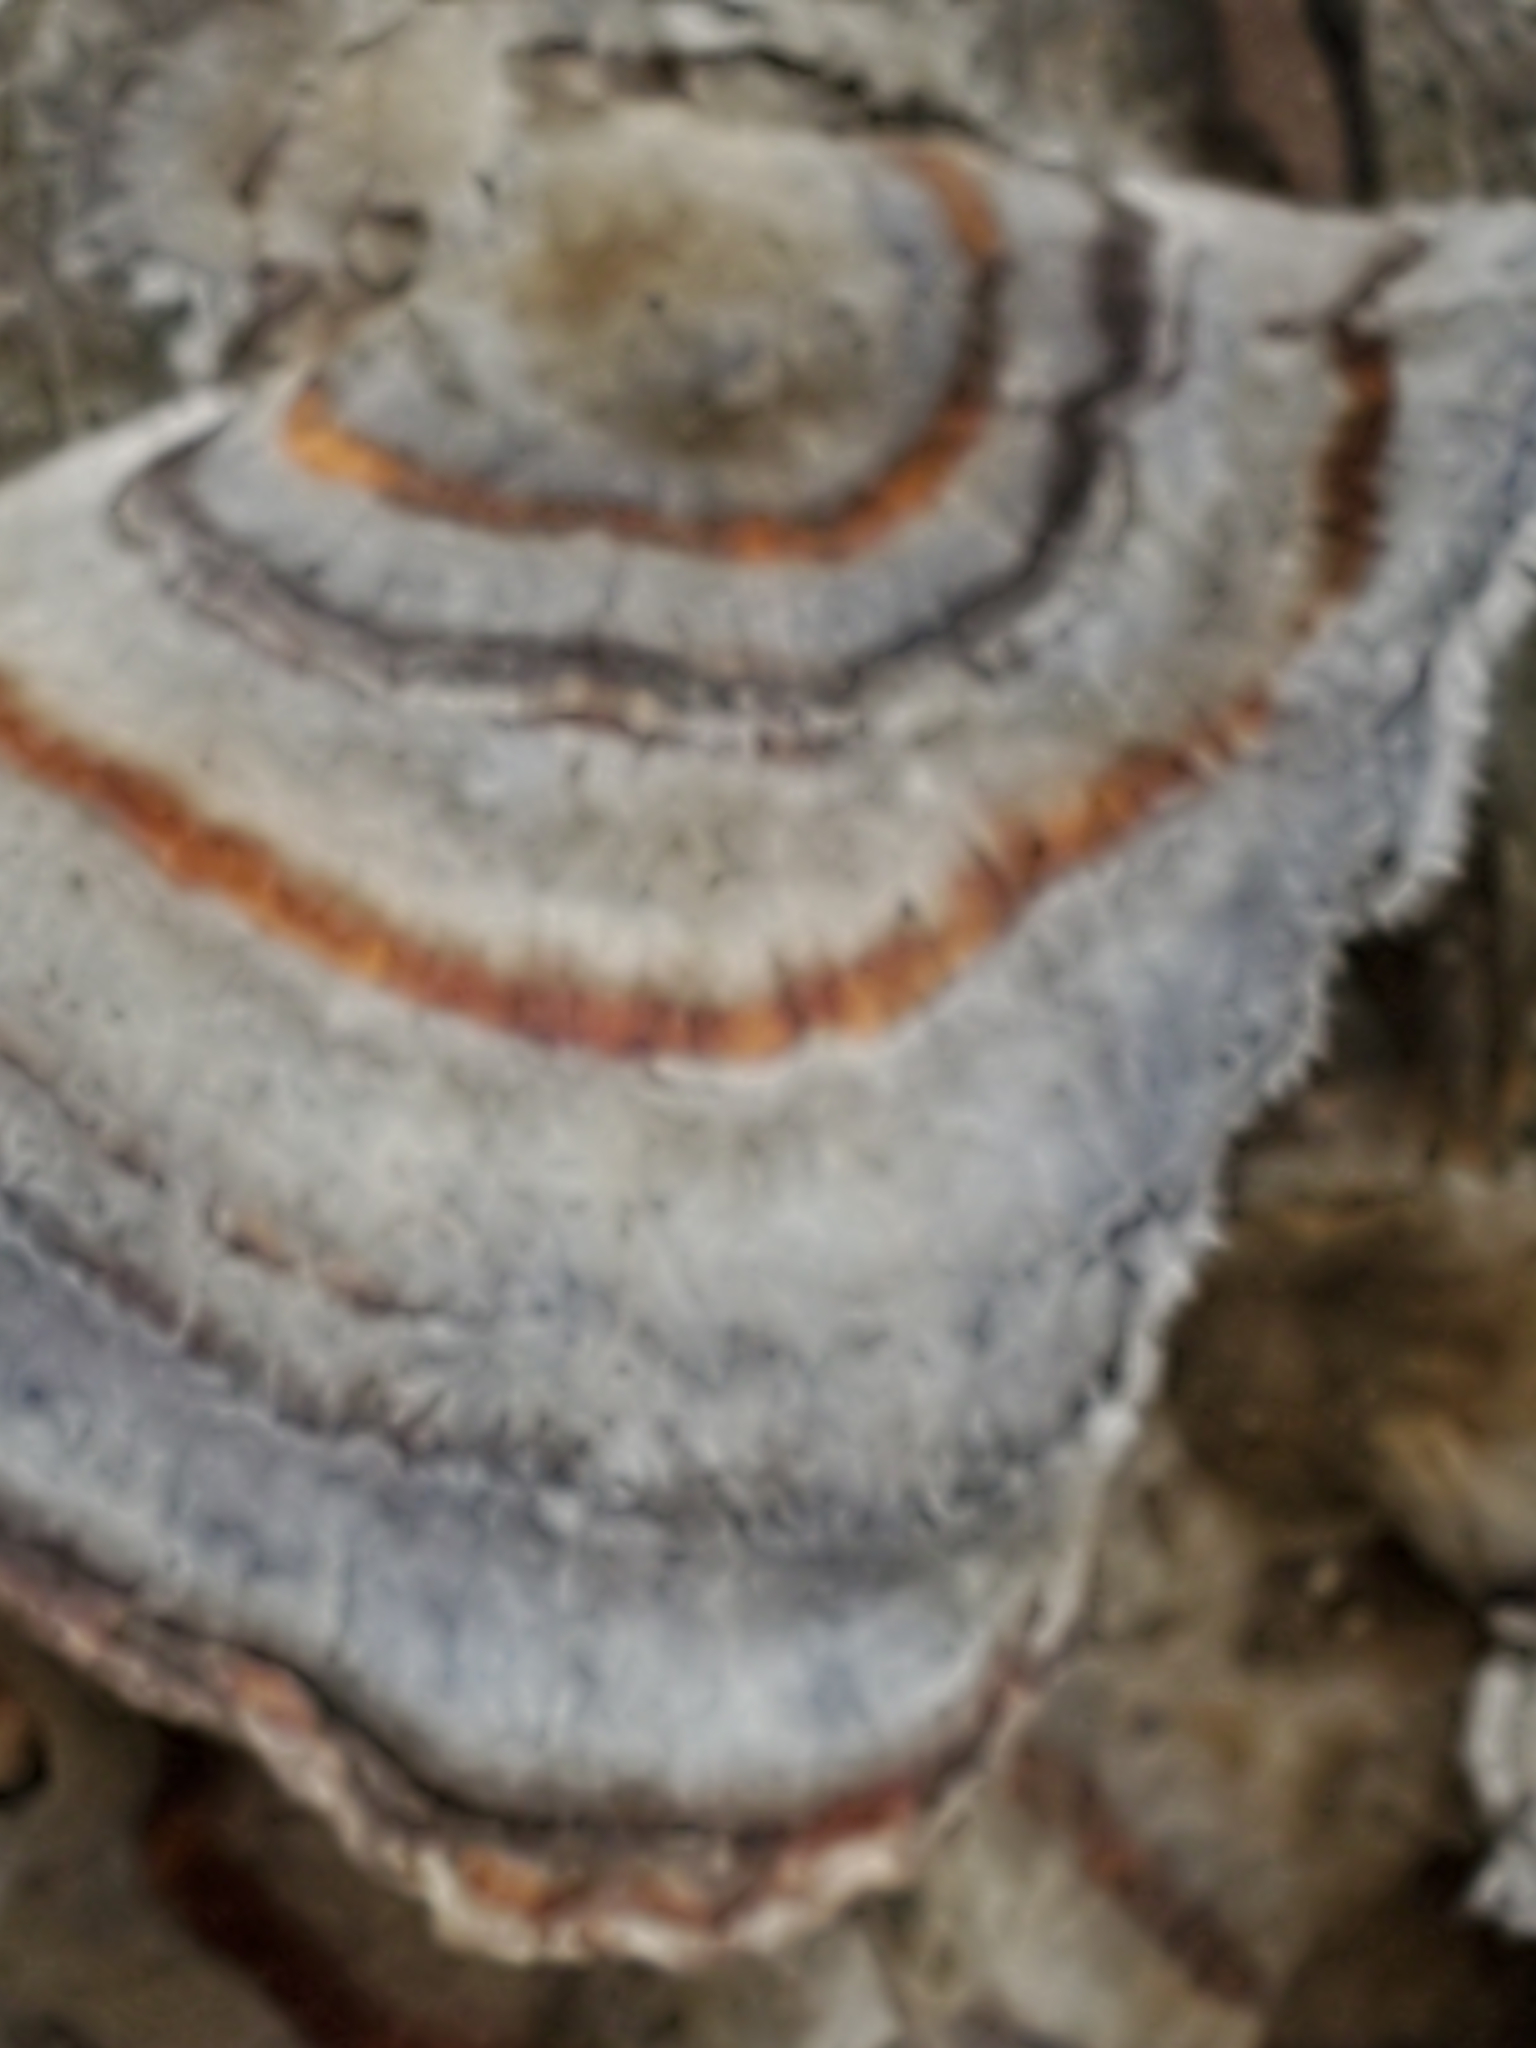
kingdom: Fungi
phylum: Basidiomycota
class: Agaricomycetes
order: Polyporales
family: Polyporaceae
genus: Trametes
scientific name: Trametes versicolor
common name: Turkeytail
